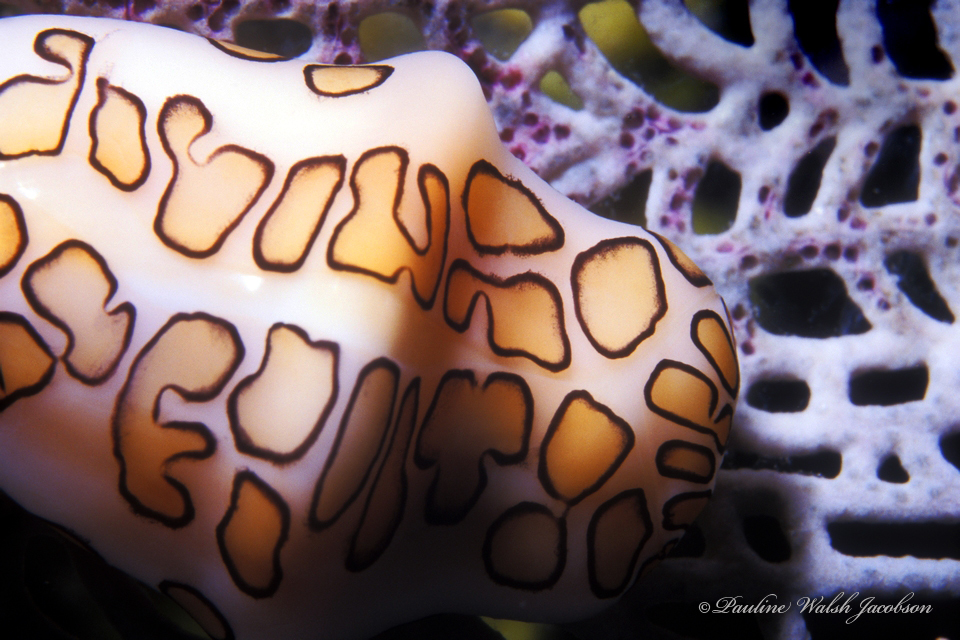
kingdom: Animalia
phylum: Mollusca
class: Gastropoda
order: Littorinimorpha
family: Ovulidae
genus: Cyphoma
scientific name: Cyphoma gibbosum
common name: Flamingo tongue
